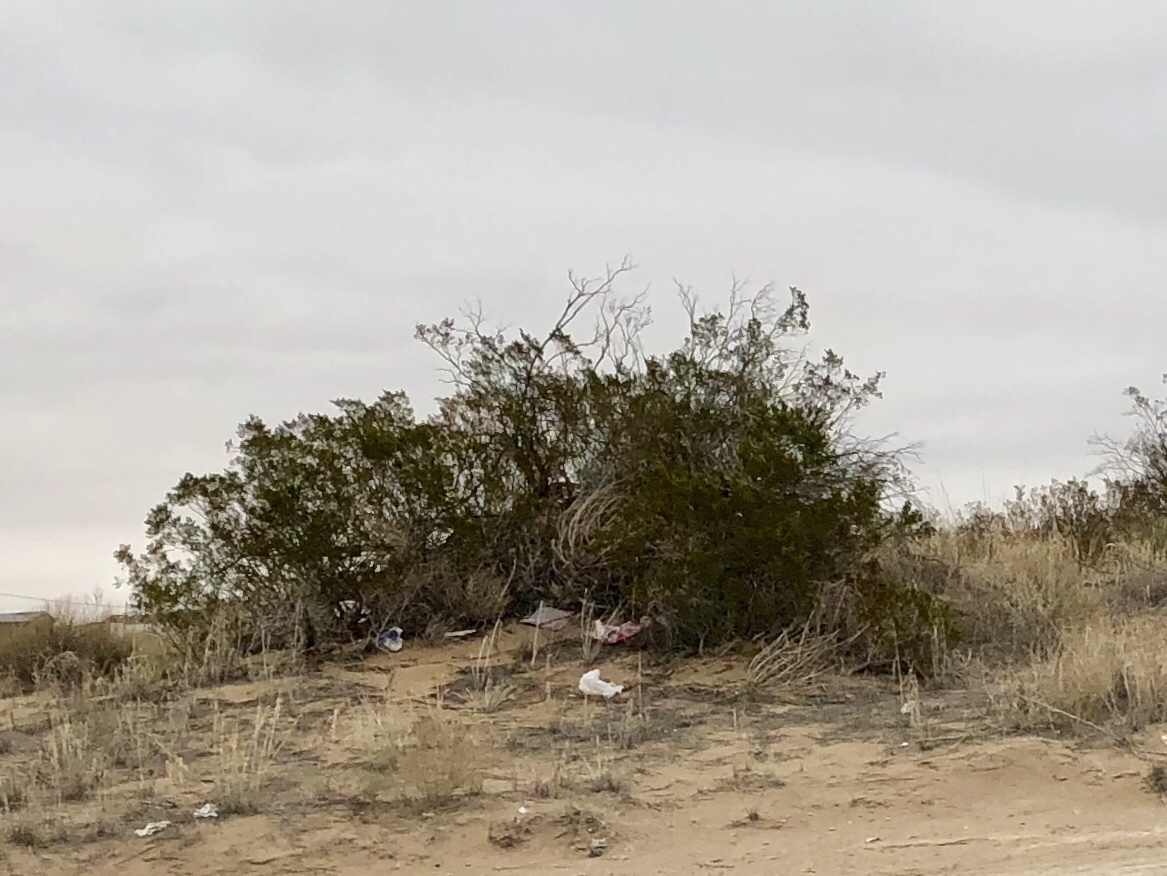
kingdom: Plantae
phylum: Tracheophyta
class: Magnoliopsida
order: Zygophyllales
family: Zygophyllaceae
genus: Larrea
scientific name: Larrea tridentata
